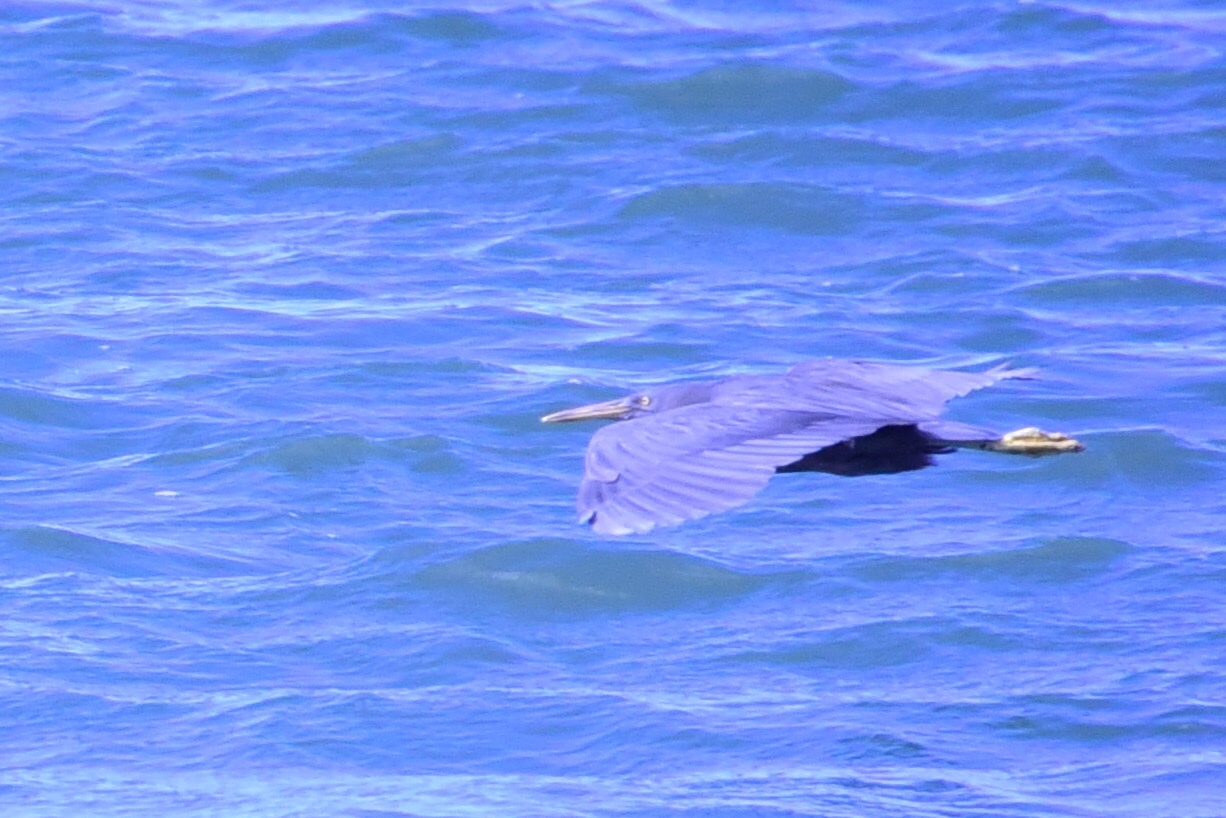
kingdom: Animalia
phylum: Chordata
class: Aves
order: Pelecaniformes
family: Ardeidae
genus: Egretta
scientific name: Egretta sacra
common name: Pacific reef heron
